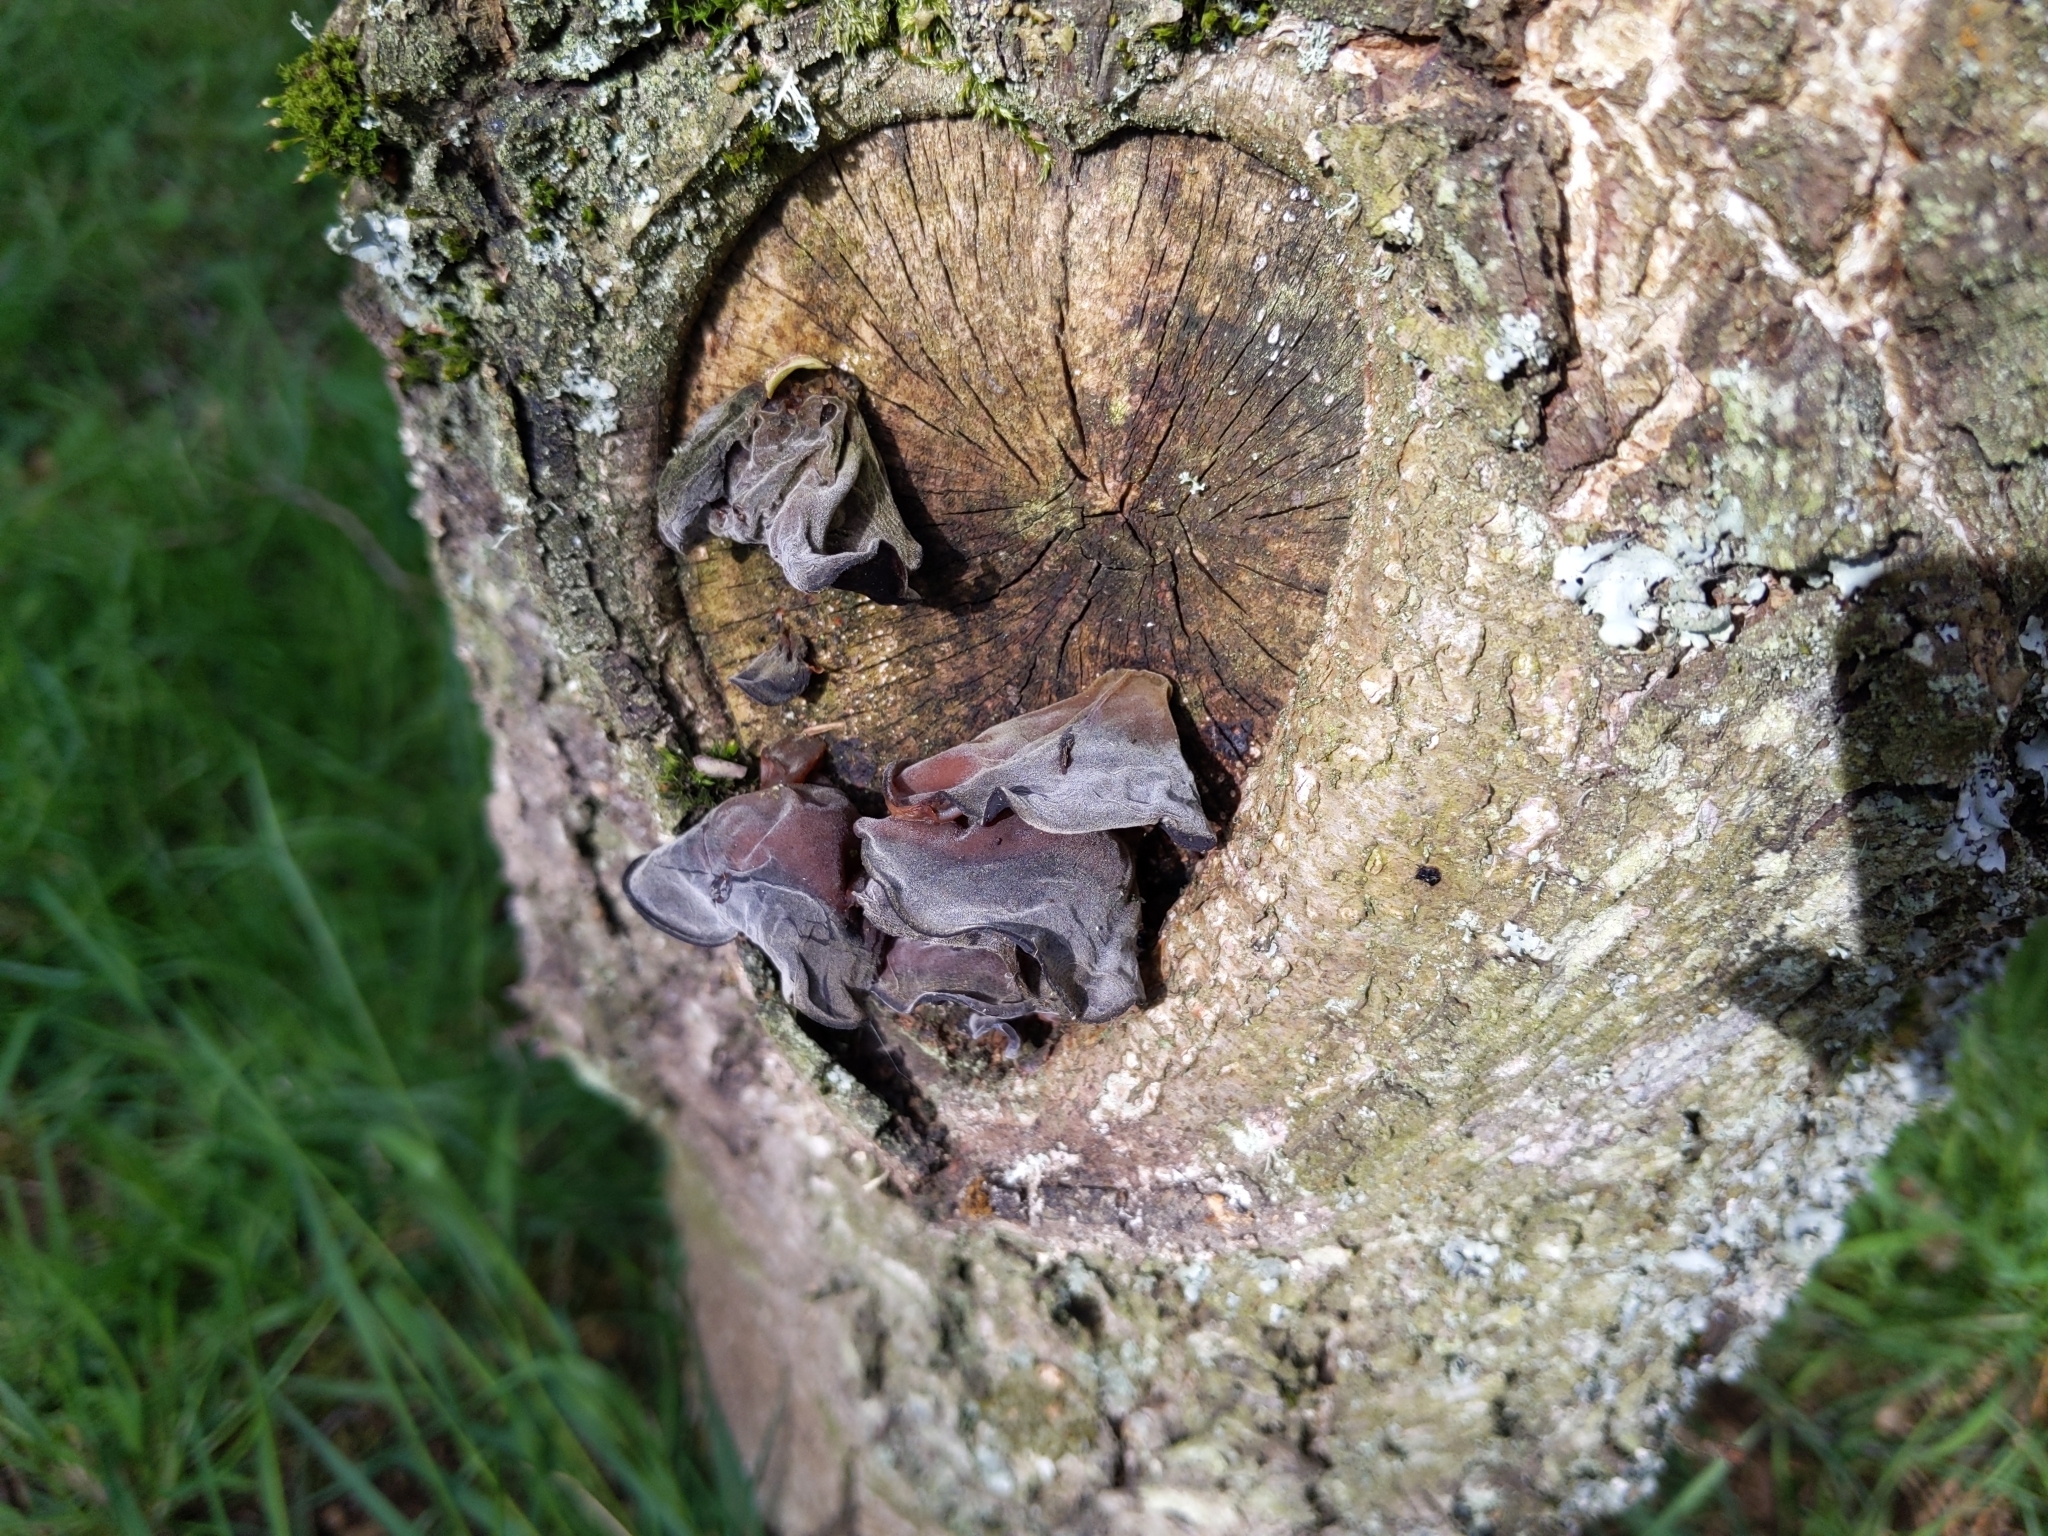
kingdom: Fungi
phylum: Basidiomycota
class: Agaricomycetes
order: Auriculariales
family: Auriculariaceae
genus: Auricularia
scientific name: Auricularia auricula-judae
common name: Jelly ear
